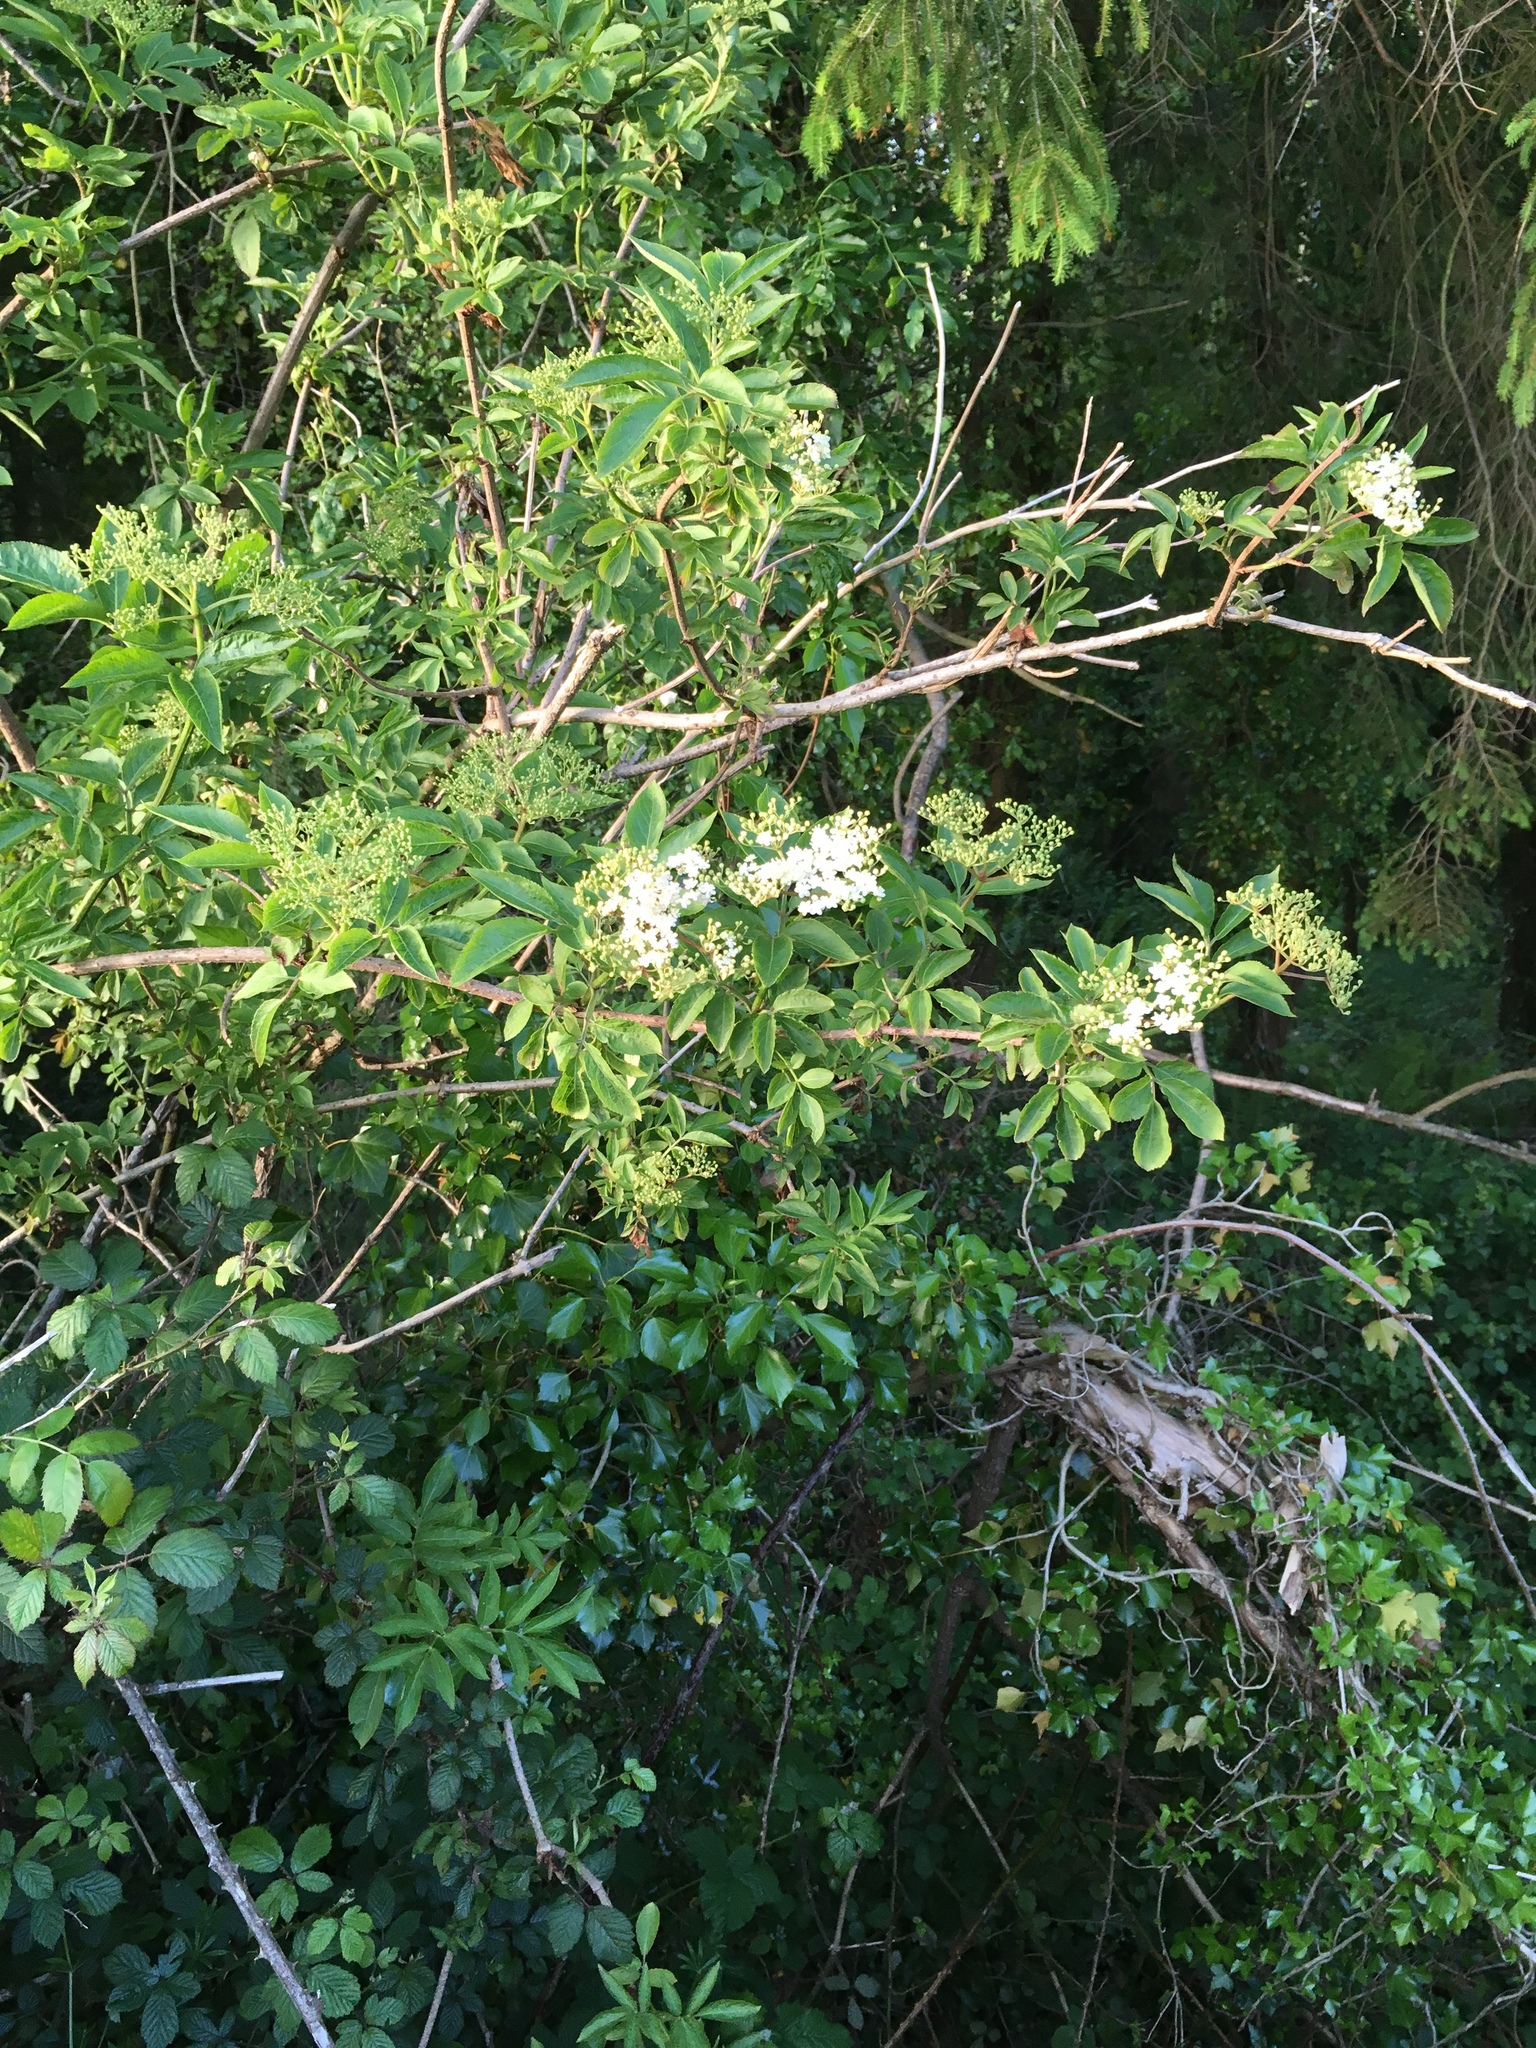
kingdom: Plantae
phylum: Tracheophyta
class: Magnoliopsida
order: Dipsacales
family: Viburnaceae
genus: Sambucus
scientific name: Sambucus nigra
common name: Elder
